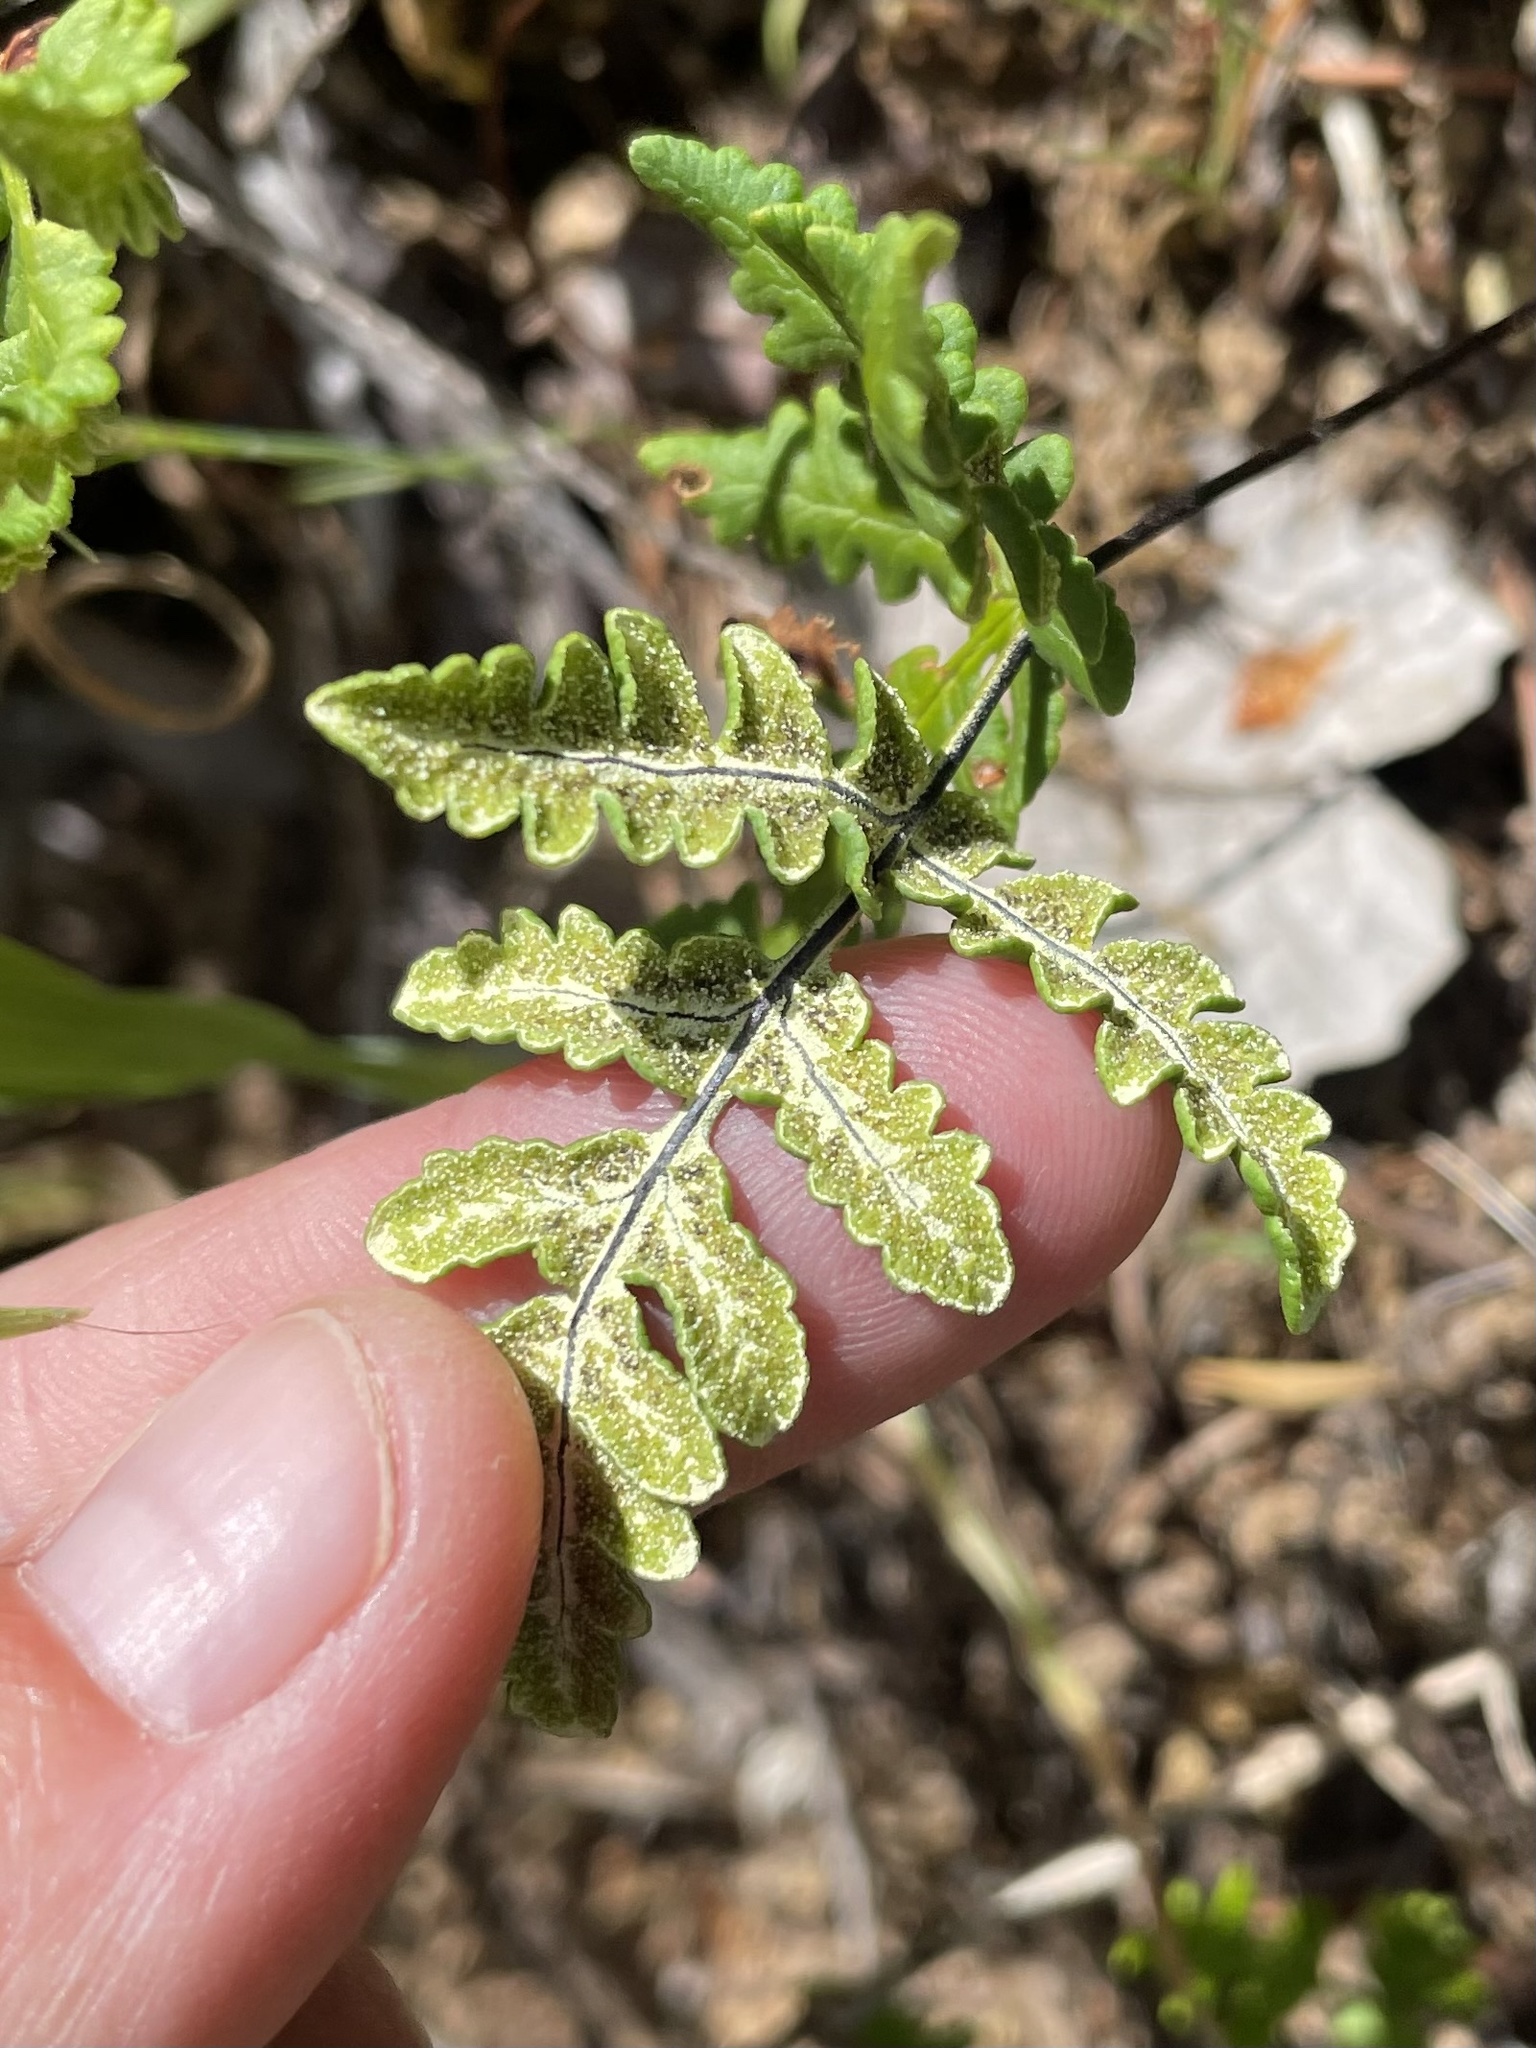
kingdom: Plantae
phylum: Tracheophyta
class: Polypodiopsida
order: Polypodiales
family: Pteridaceae
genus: Pentagramma
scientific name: Pentagramma triangularis
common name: Gold fern
